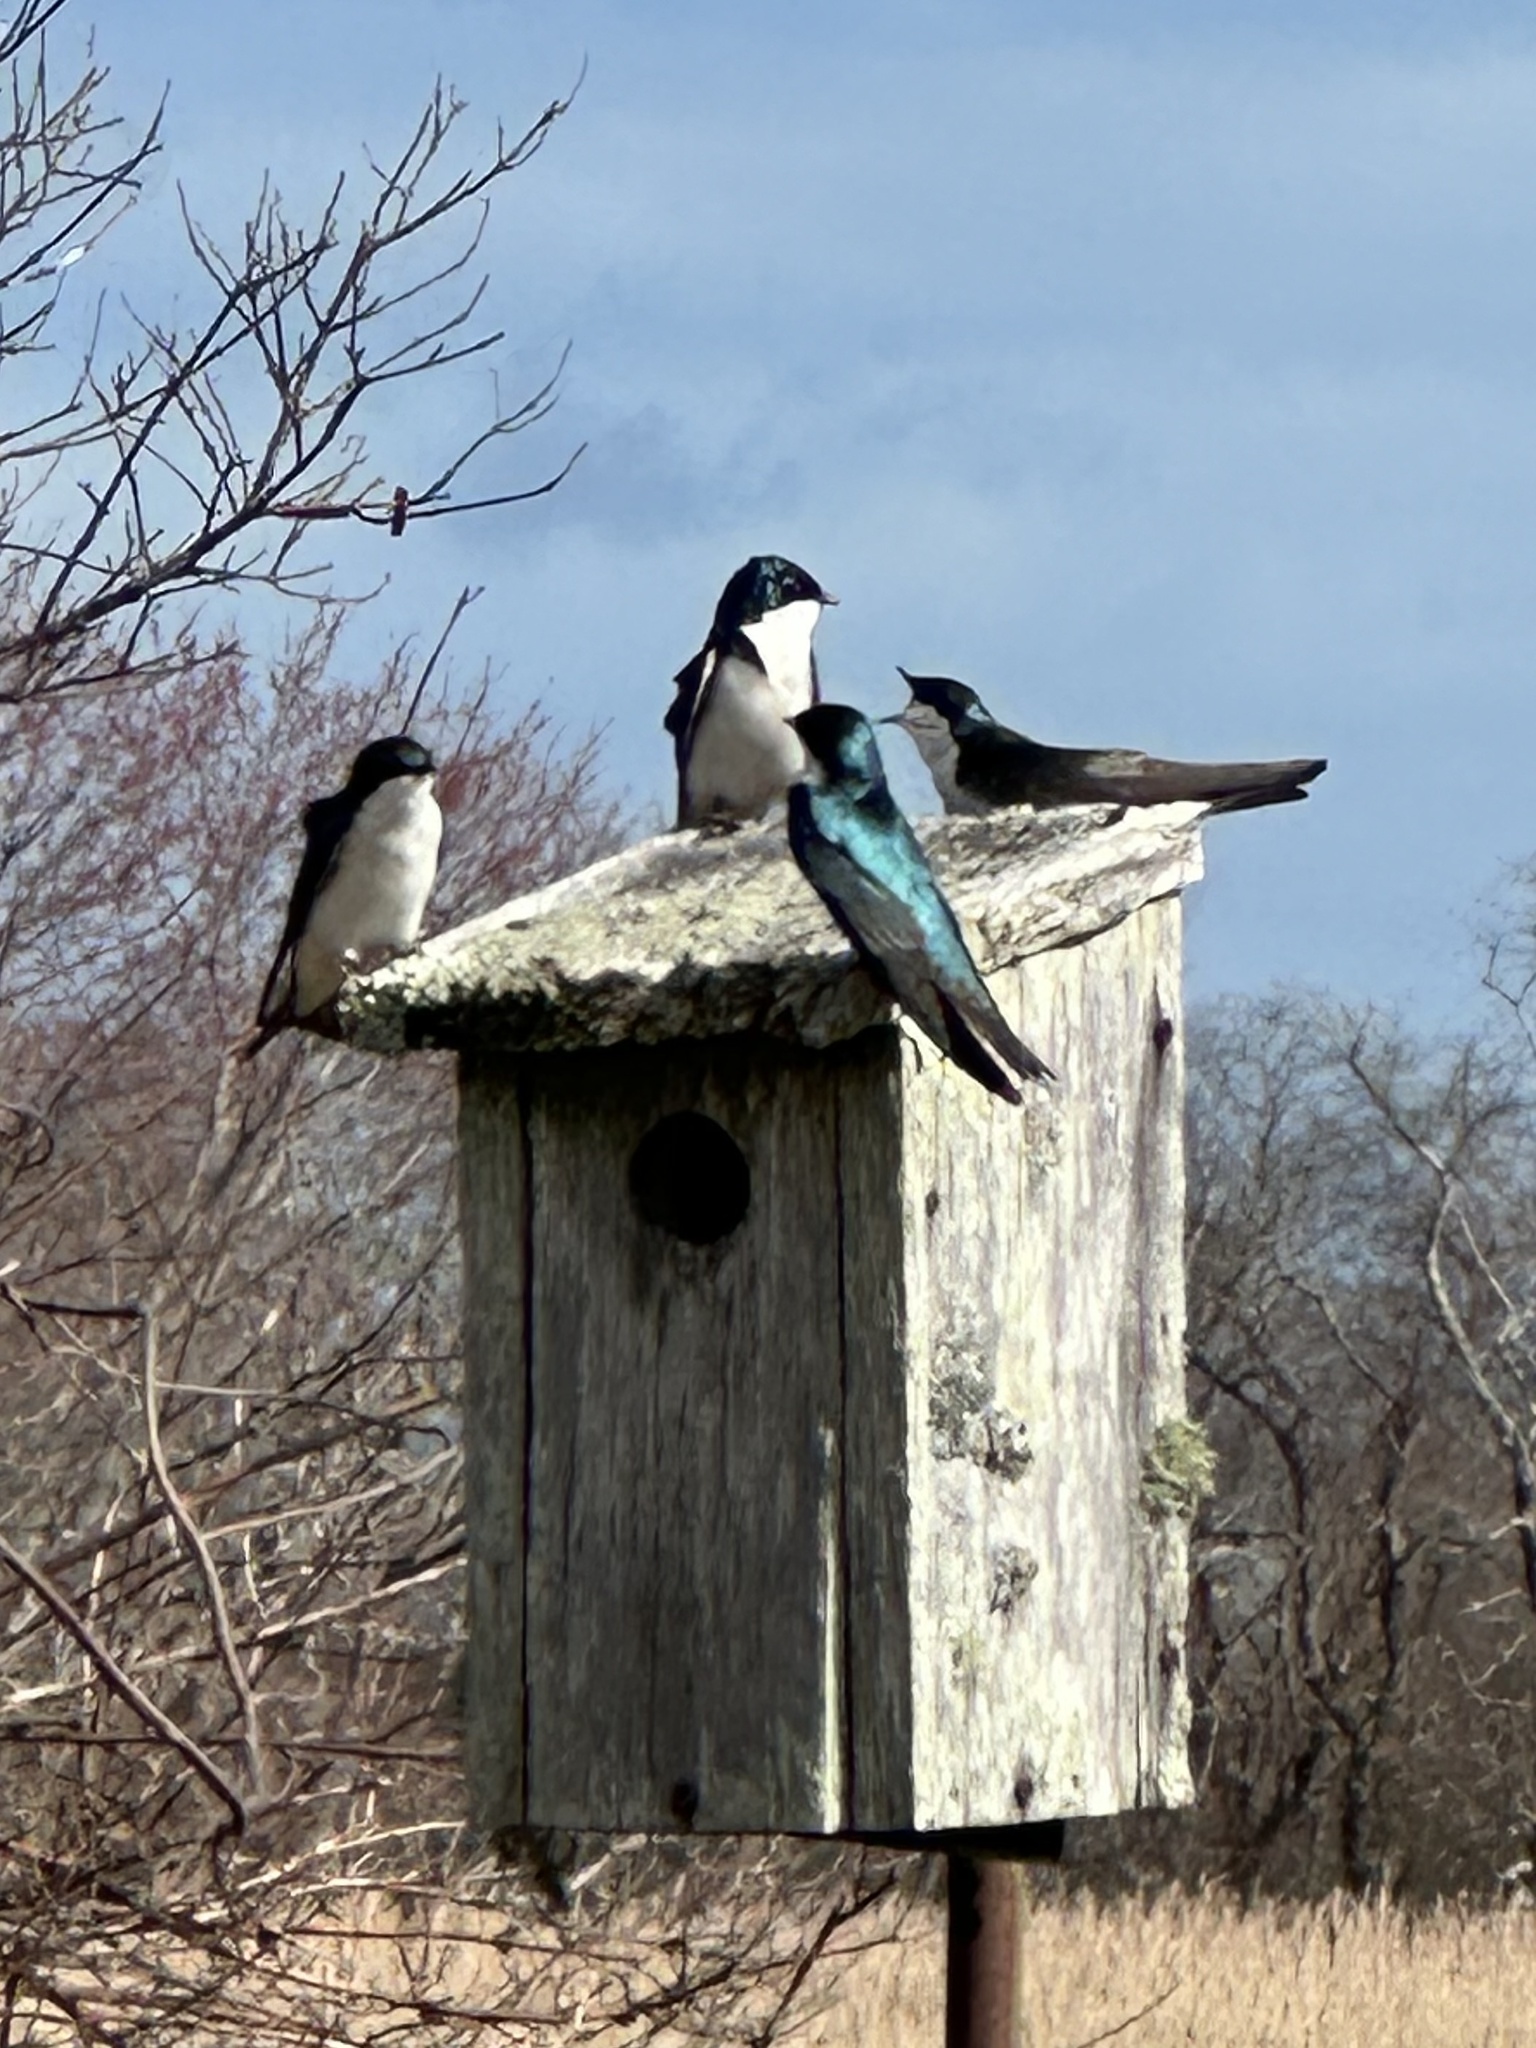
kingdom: Animalia
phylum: Chordata
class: Aves
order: Passeriformes
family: Hirundinidae
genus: Tachycineta
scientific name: Tachycineta bicolor
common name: Tree swallow
